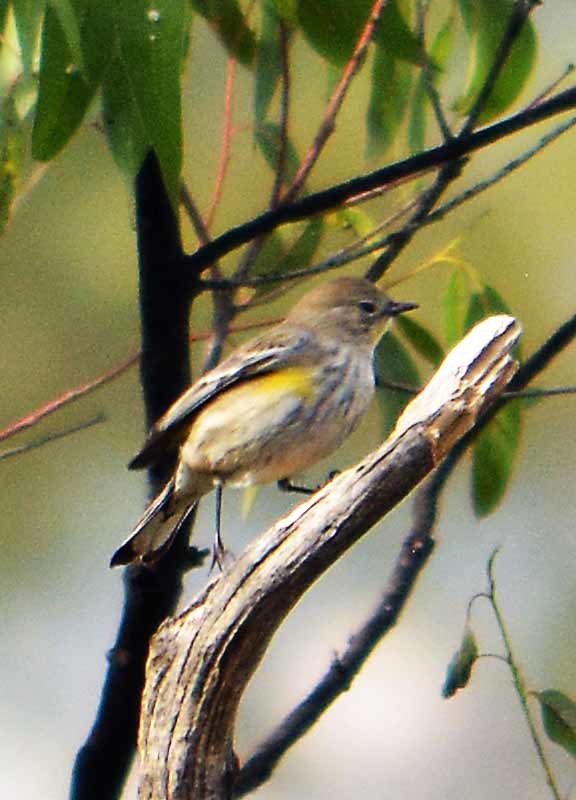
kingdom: Animalia
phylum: Chordata
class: Aves
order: Passeriformes
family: Parulidae
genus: Setophaga
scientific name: Setophaga coronata
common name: Myrtle warbler
